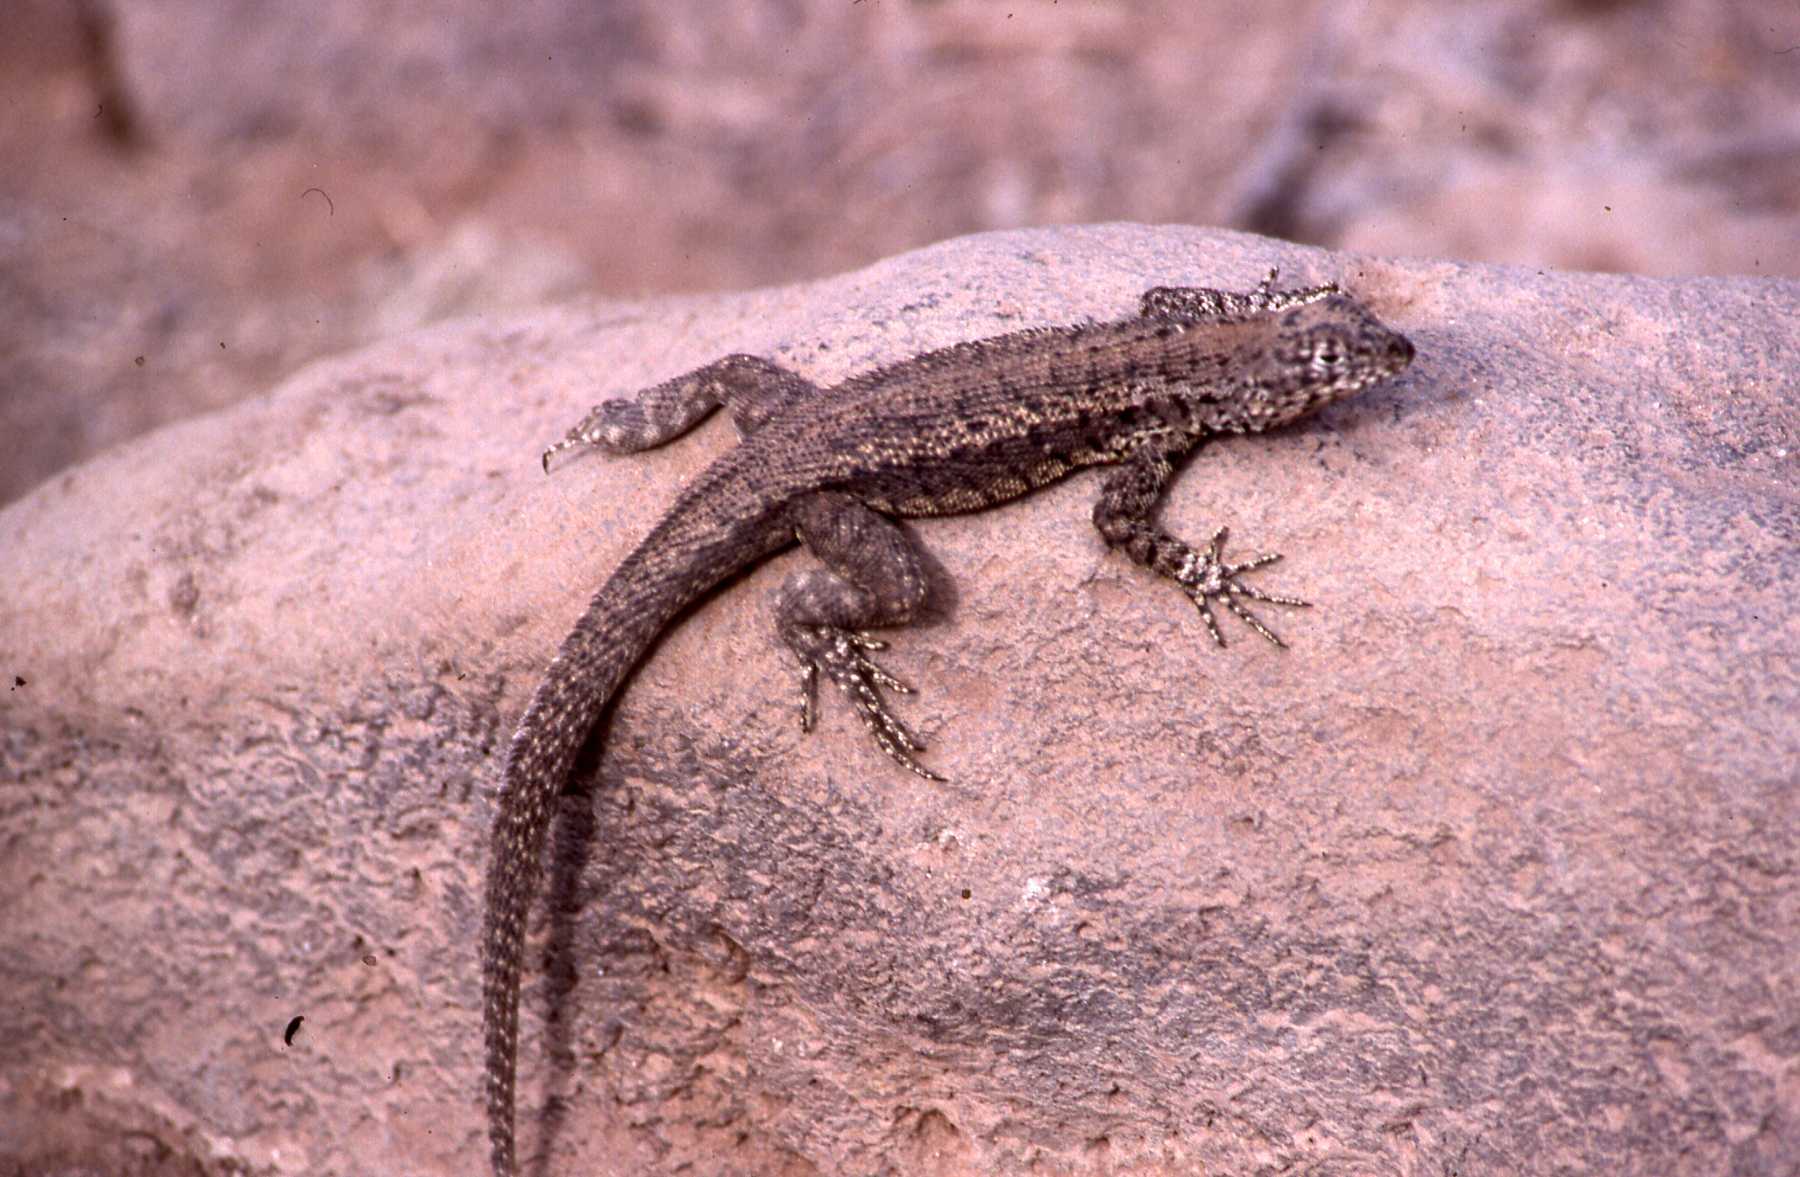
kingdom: Animalia
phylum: Chordata
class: Squamata
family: Tropiduridae
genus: Microlophus
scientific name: Microlophus barringtonensis
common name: Galapagos lava lizard
